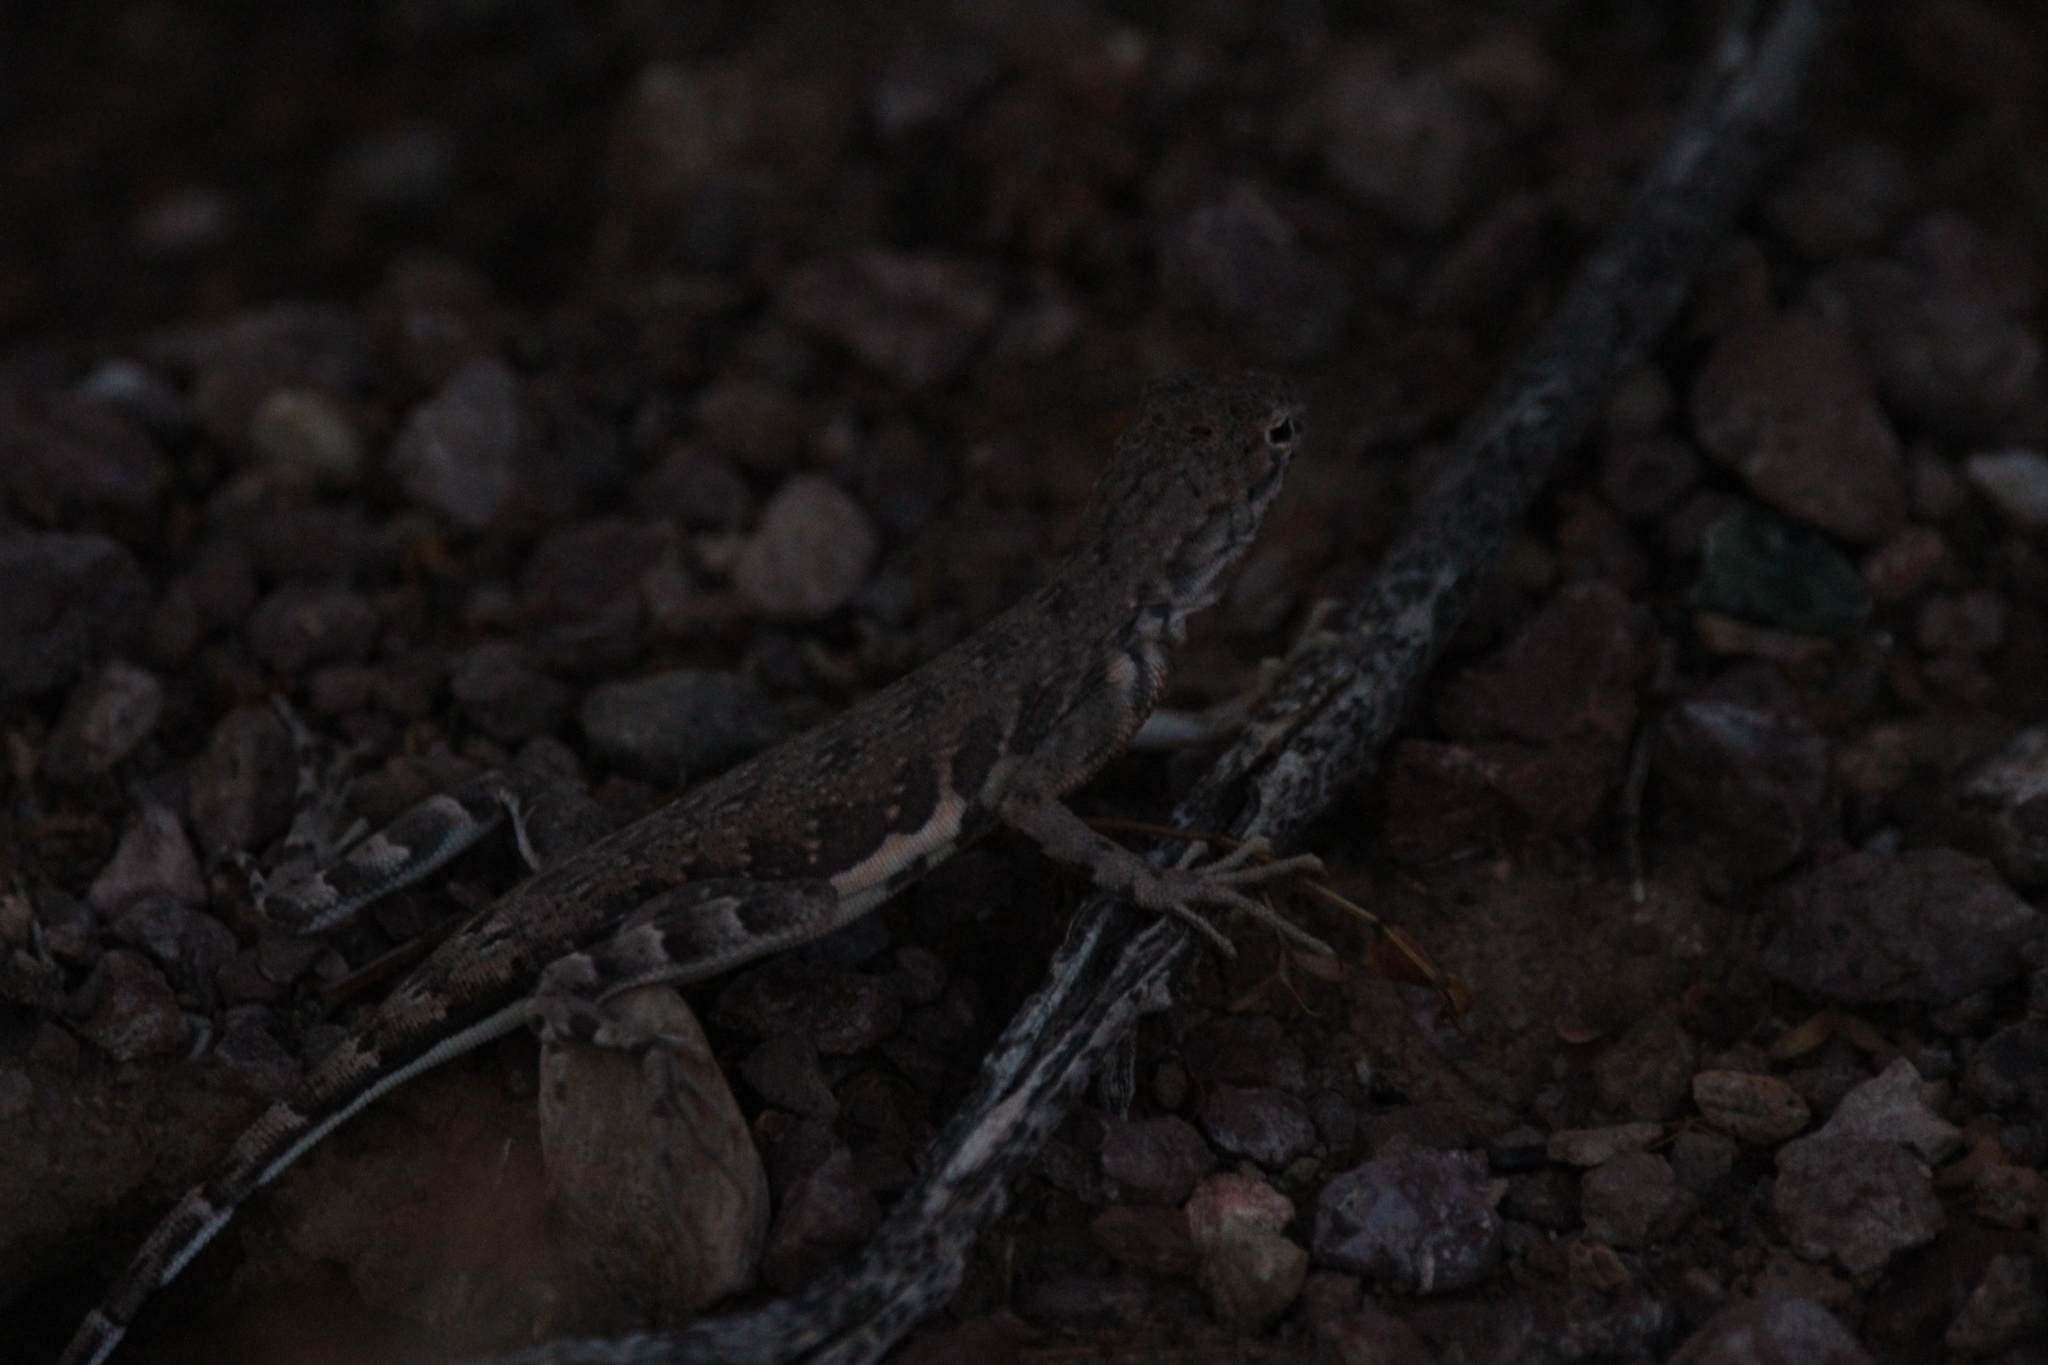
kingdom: Animalia
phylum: Chordata
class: Squamata
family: Phrynosomatidae
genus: Callisaurus
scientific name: Callisaurus draconoides
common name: Zebra-tailed lizard
